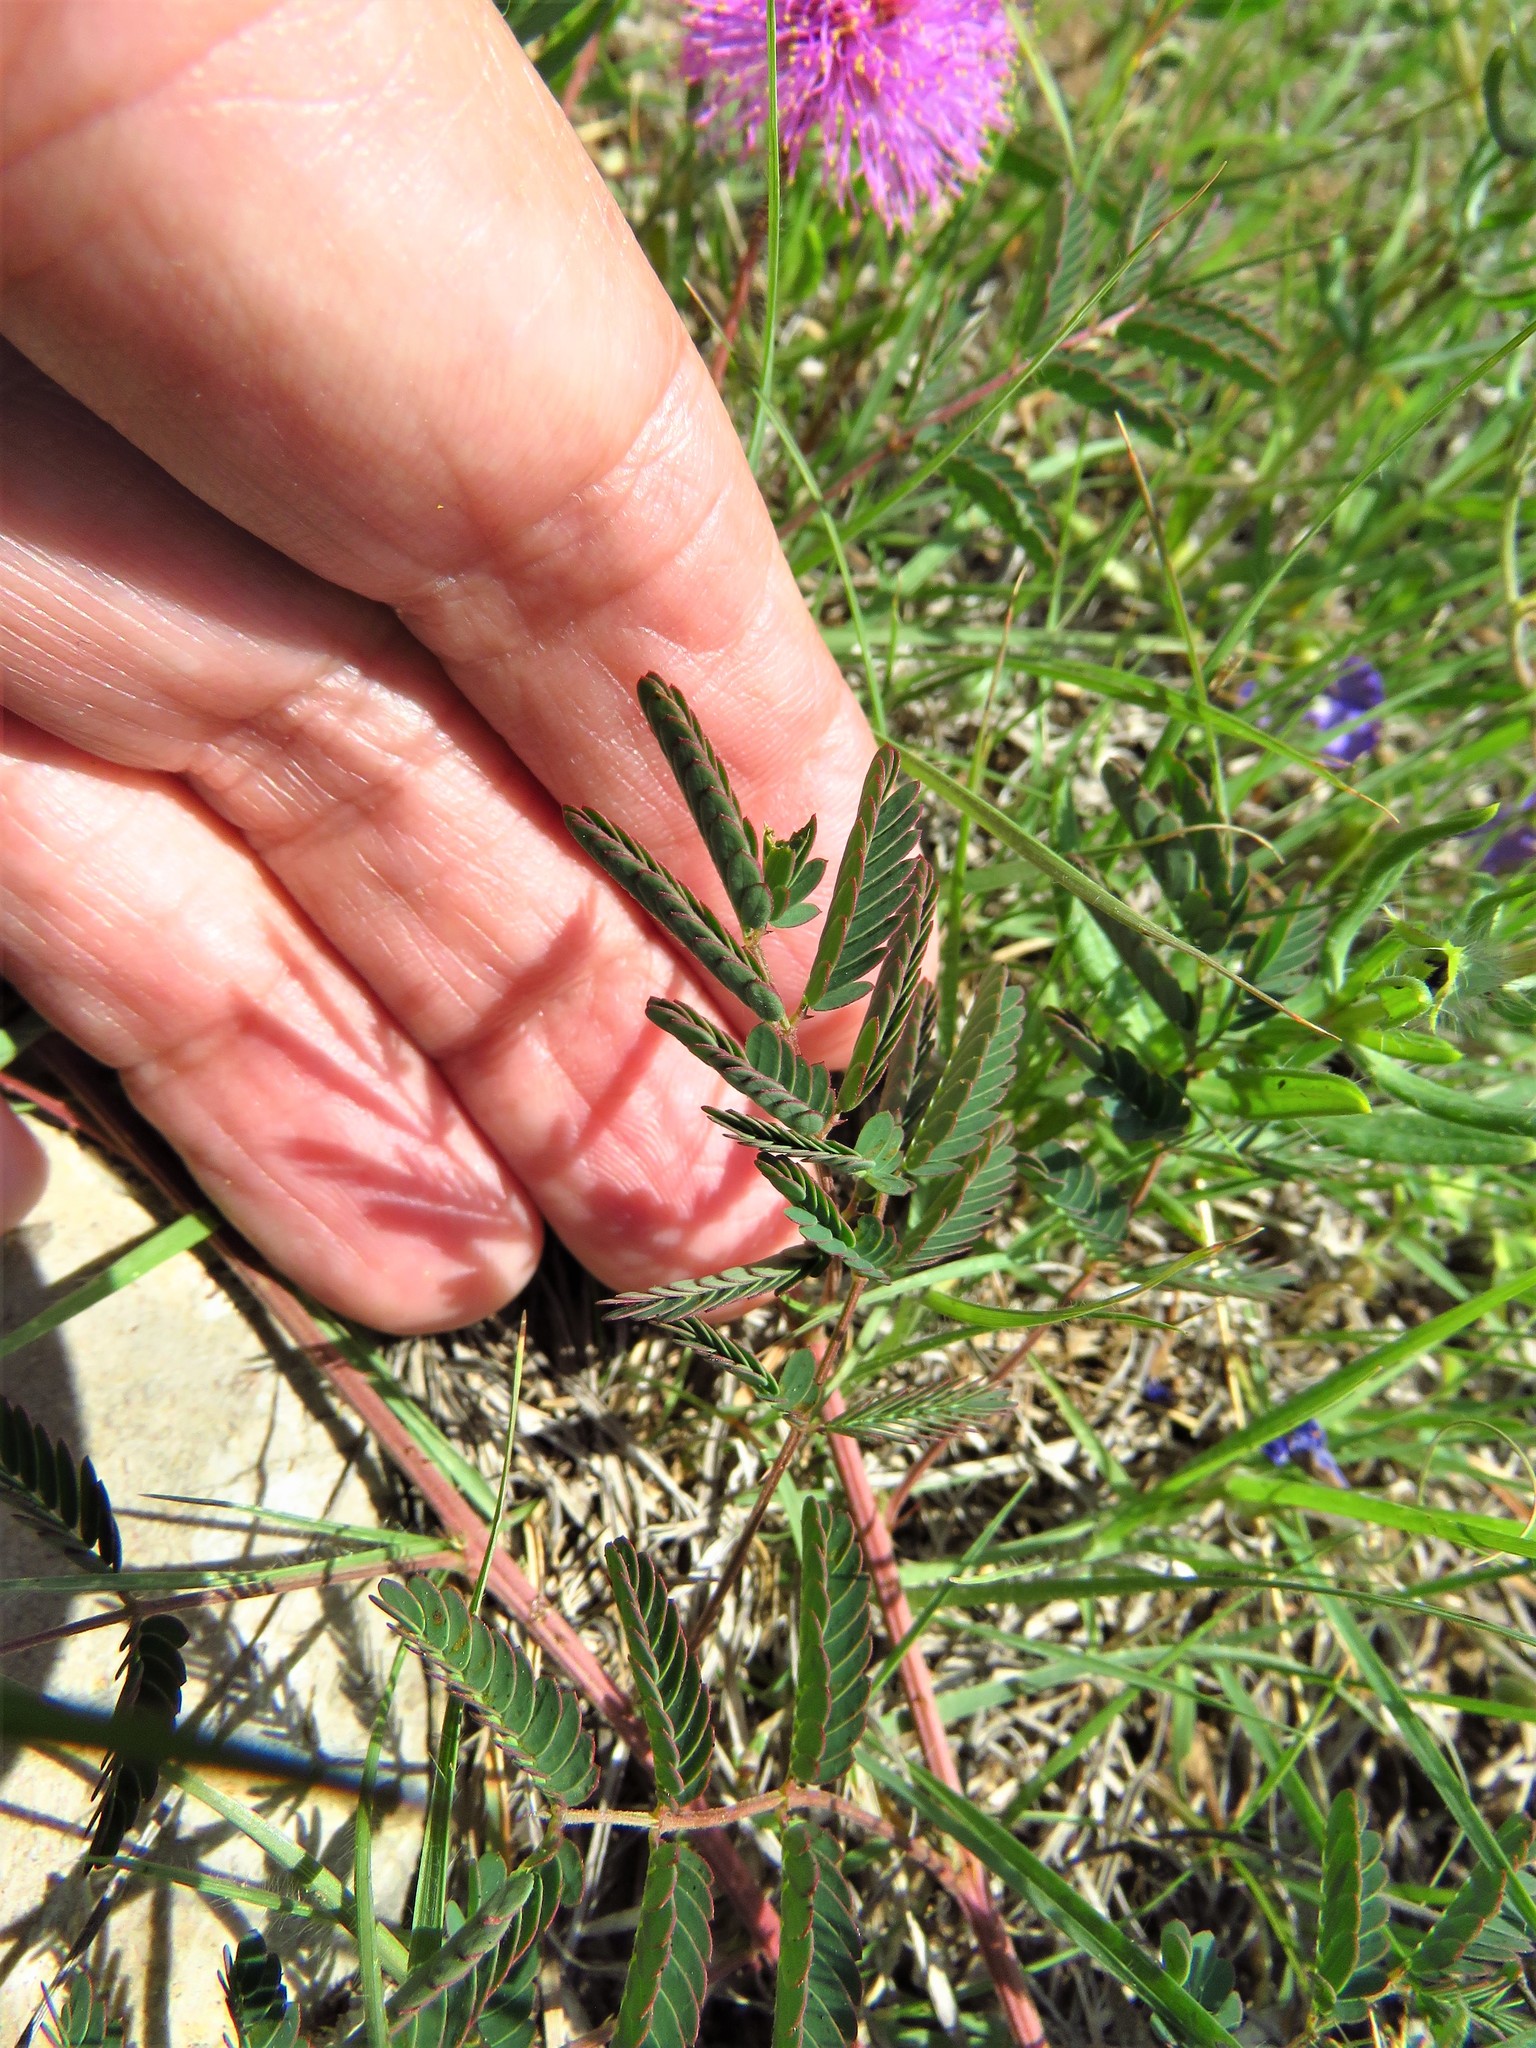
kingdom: Plantae
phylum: Tracheophyta
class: Magnoliopsida
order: Fabales
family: Fabaceae
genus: Mimosa
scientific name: Mimosa quadrivalvis
